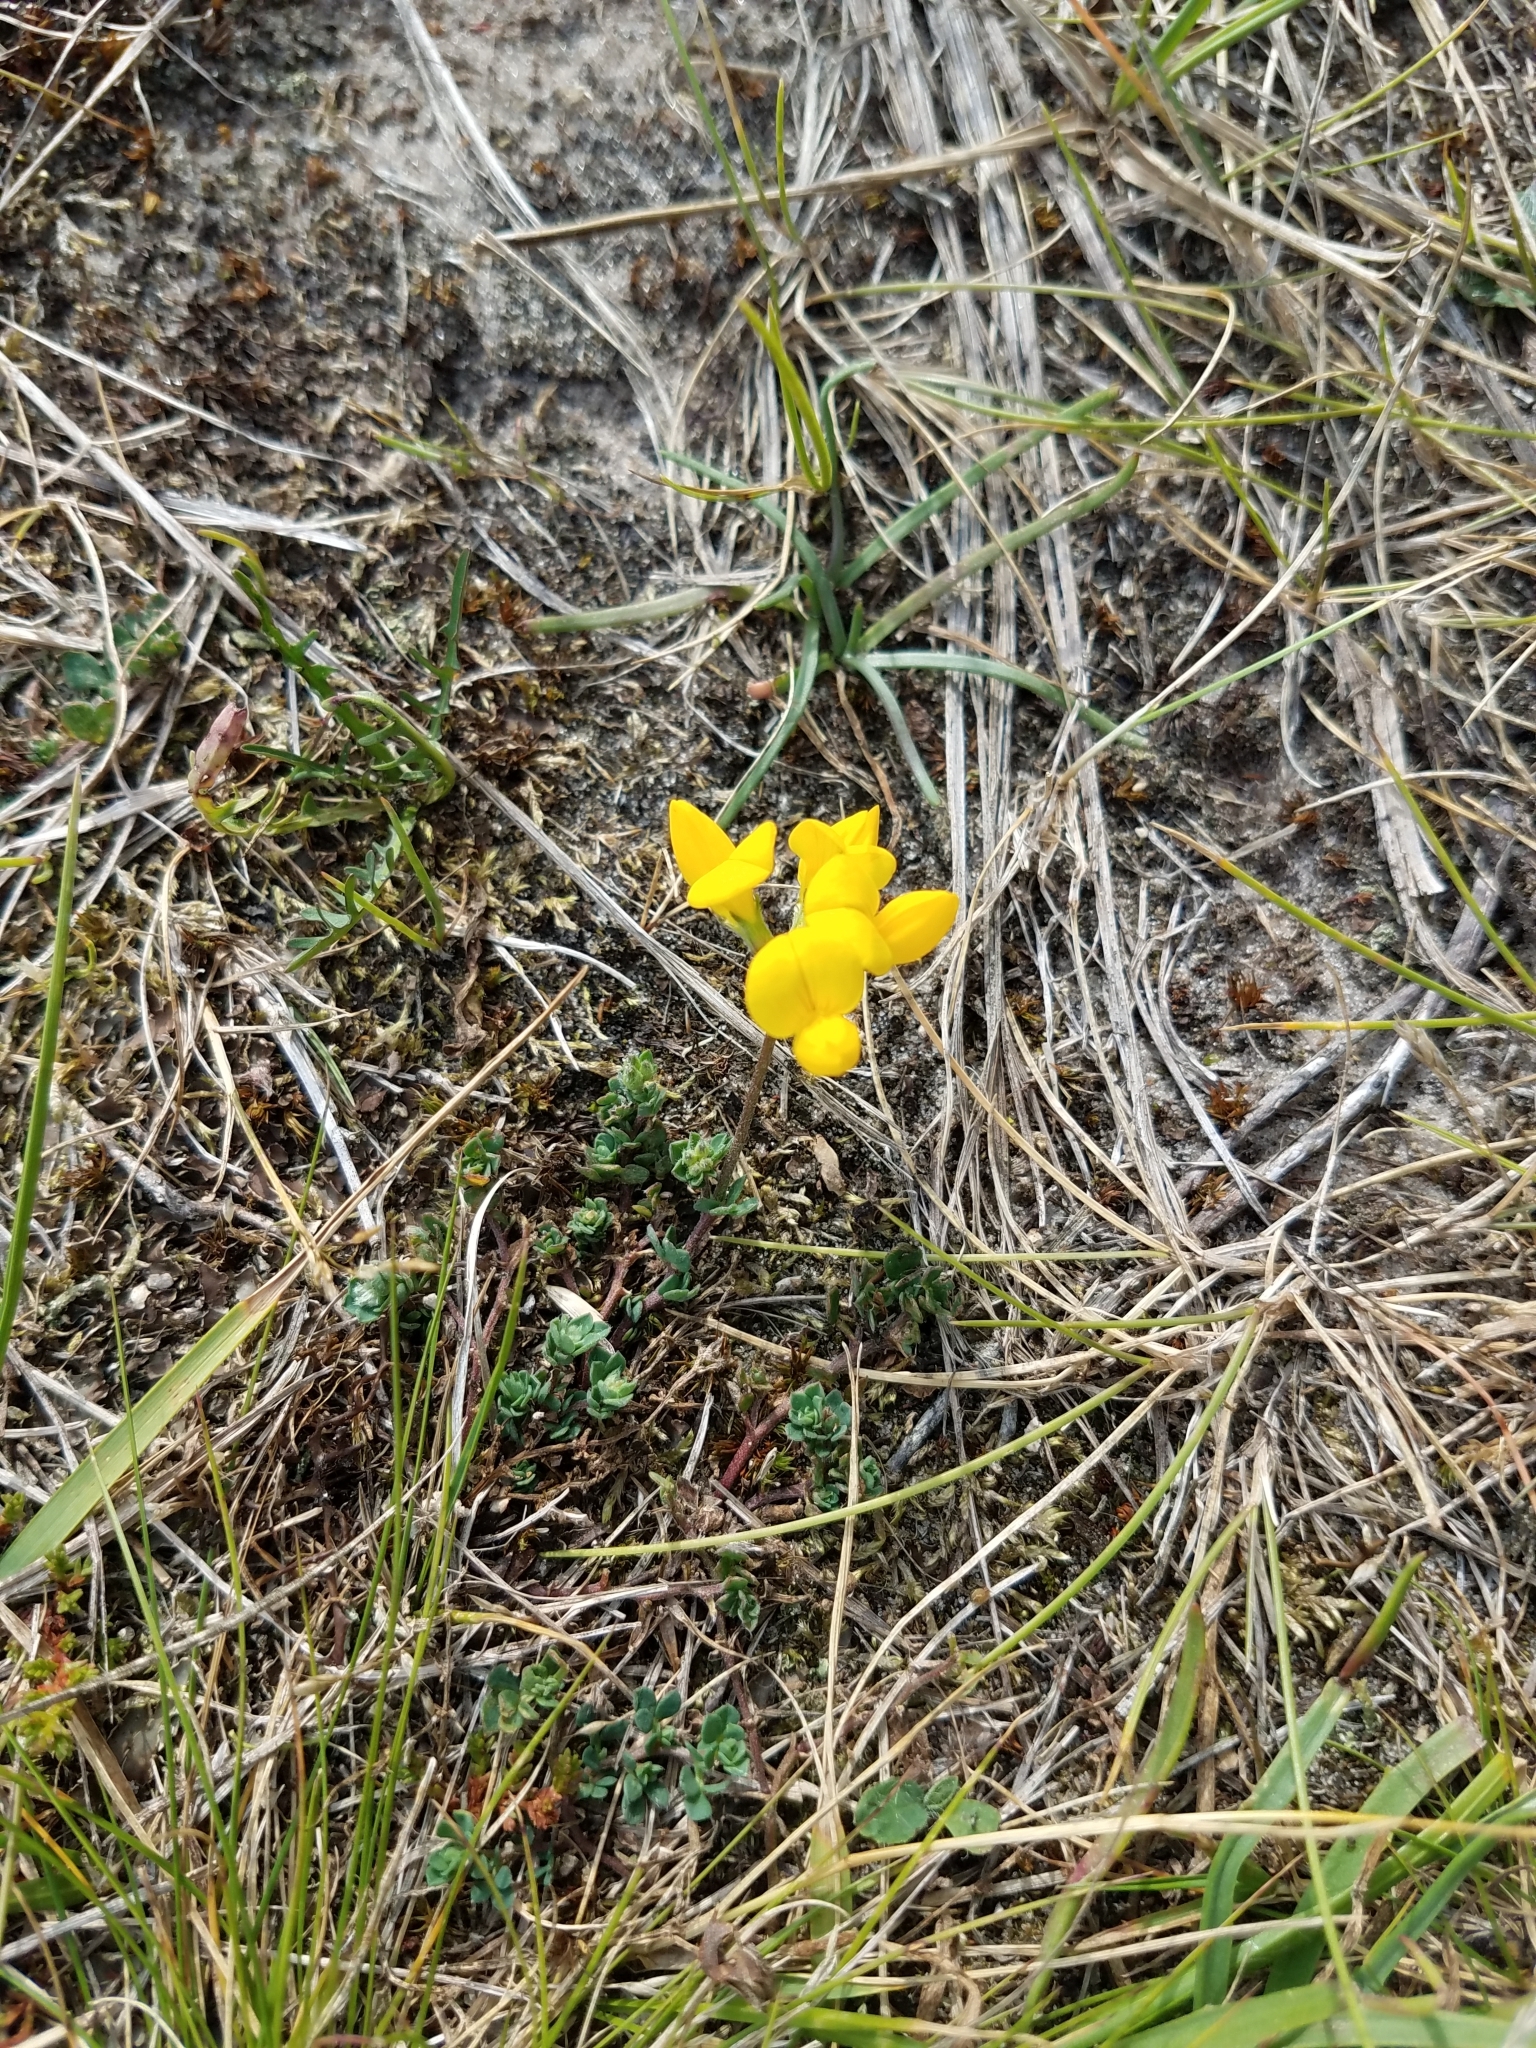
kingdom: Plantae
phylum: Tracheophyta
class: Magnoliopsida
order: Fabales
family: Fabaceae
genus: Lotus
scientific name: Lotus corniculatus
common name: Common bird's-foot-trefoil
